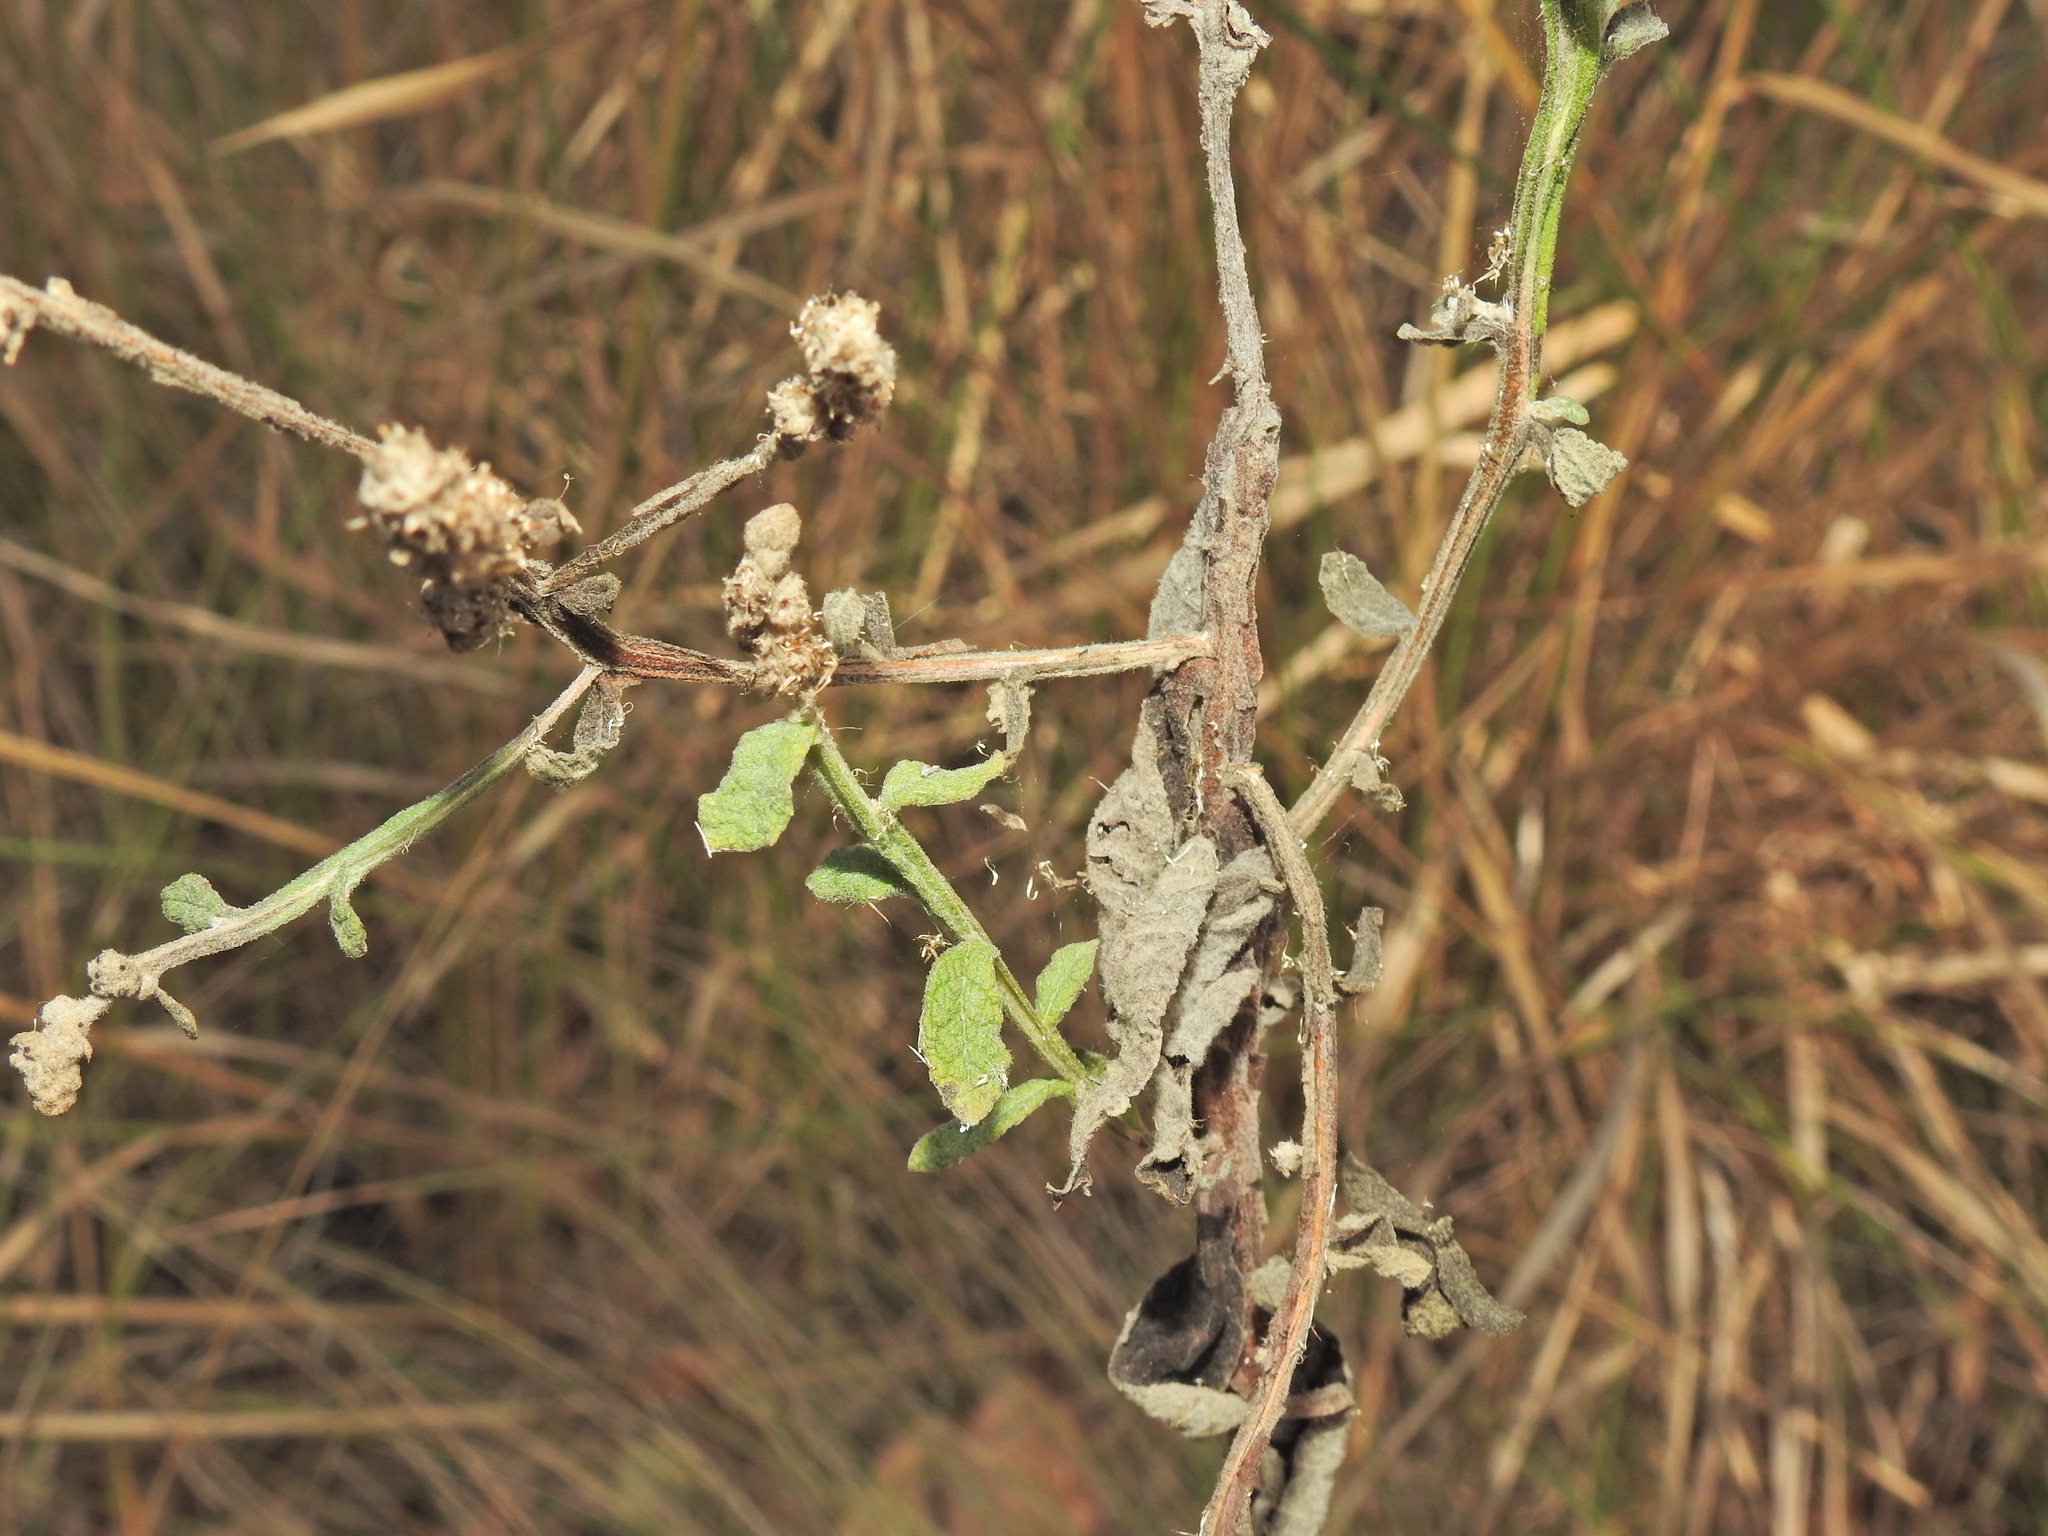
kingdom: Plantae
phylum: Tracheophyta
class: Magnoliopsida
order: Asterales
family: Asteraceae
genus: Pterocaulon
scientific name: Pterocaulon redolens
